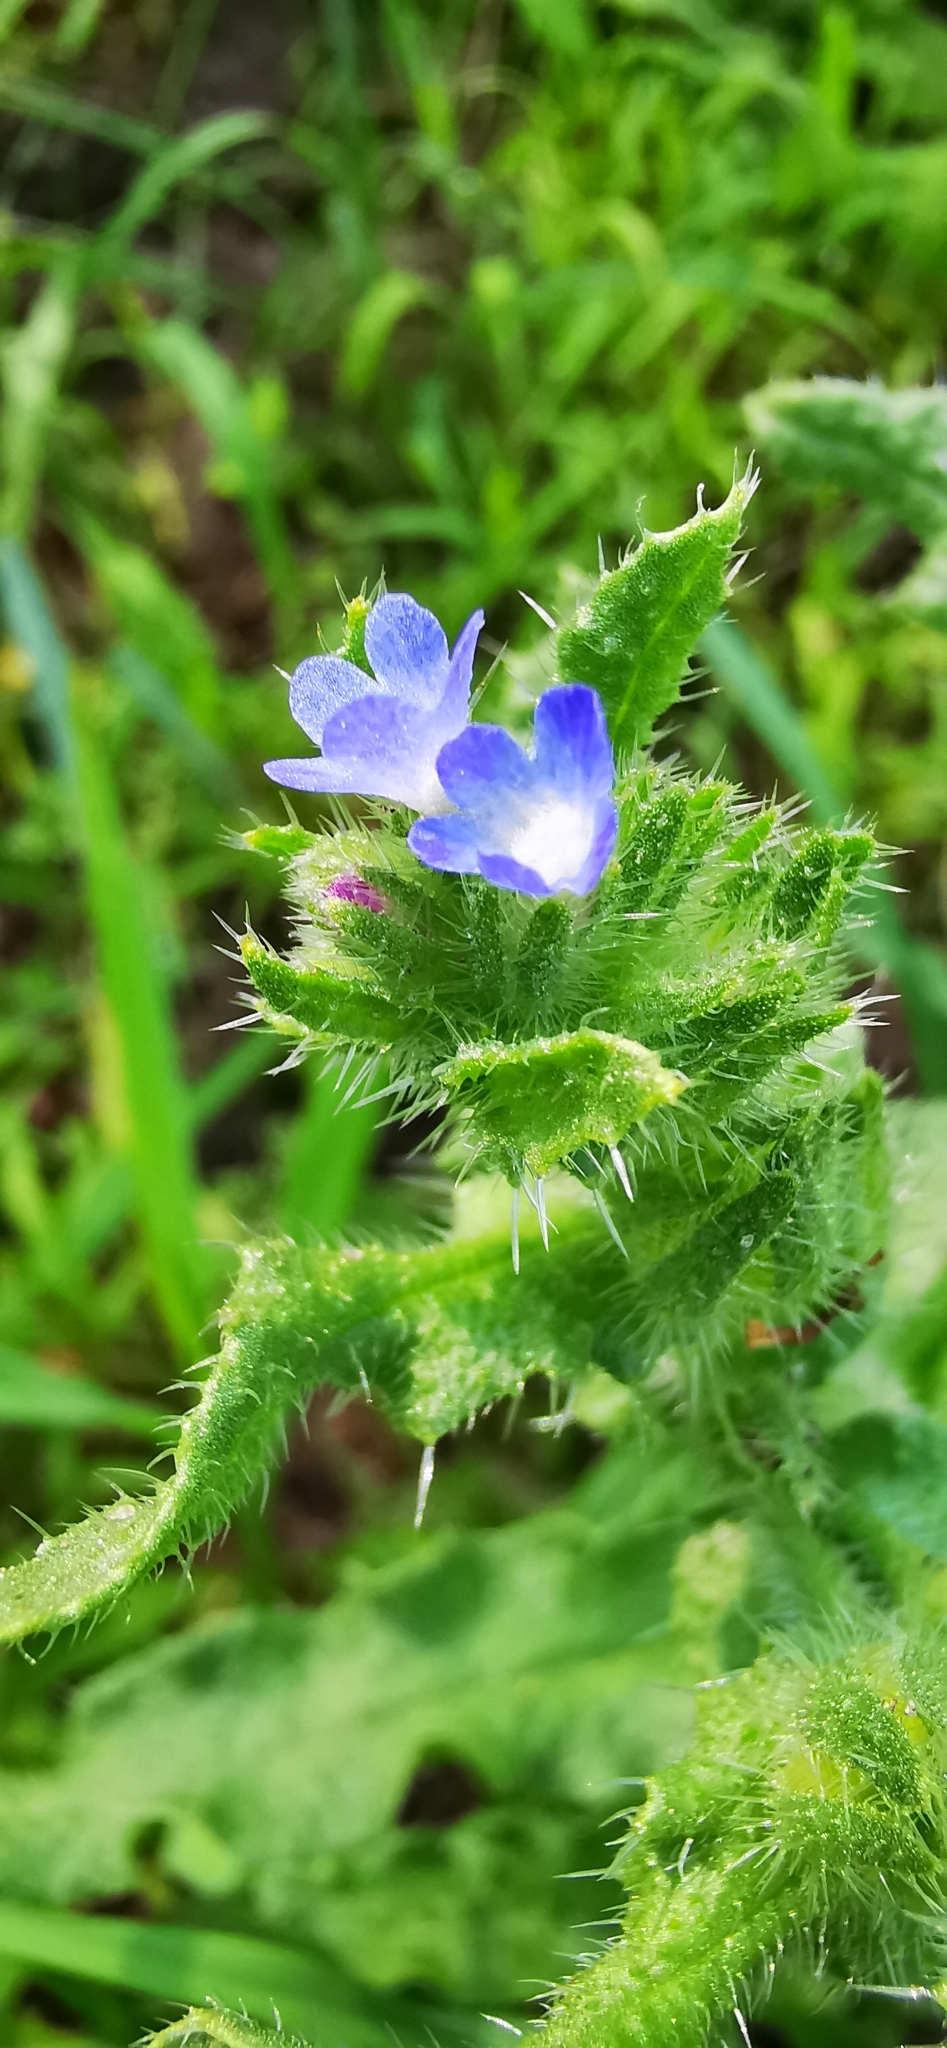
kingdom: Plantae
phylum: Tracheophyta
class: Magnoliopsida
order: Boraginales
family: Boraginaceae
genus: Lycopsis
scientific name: Lycopsis arvensis
